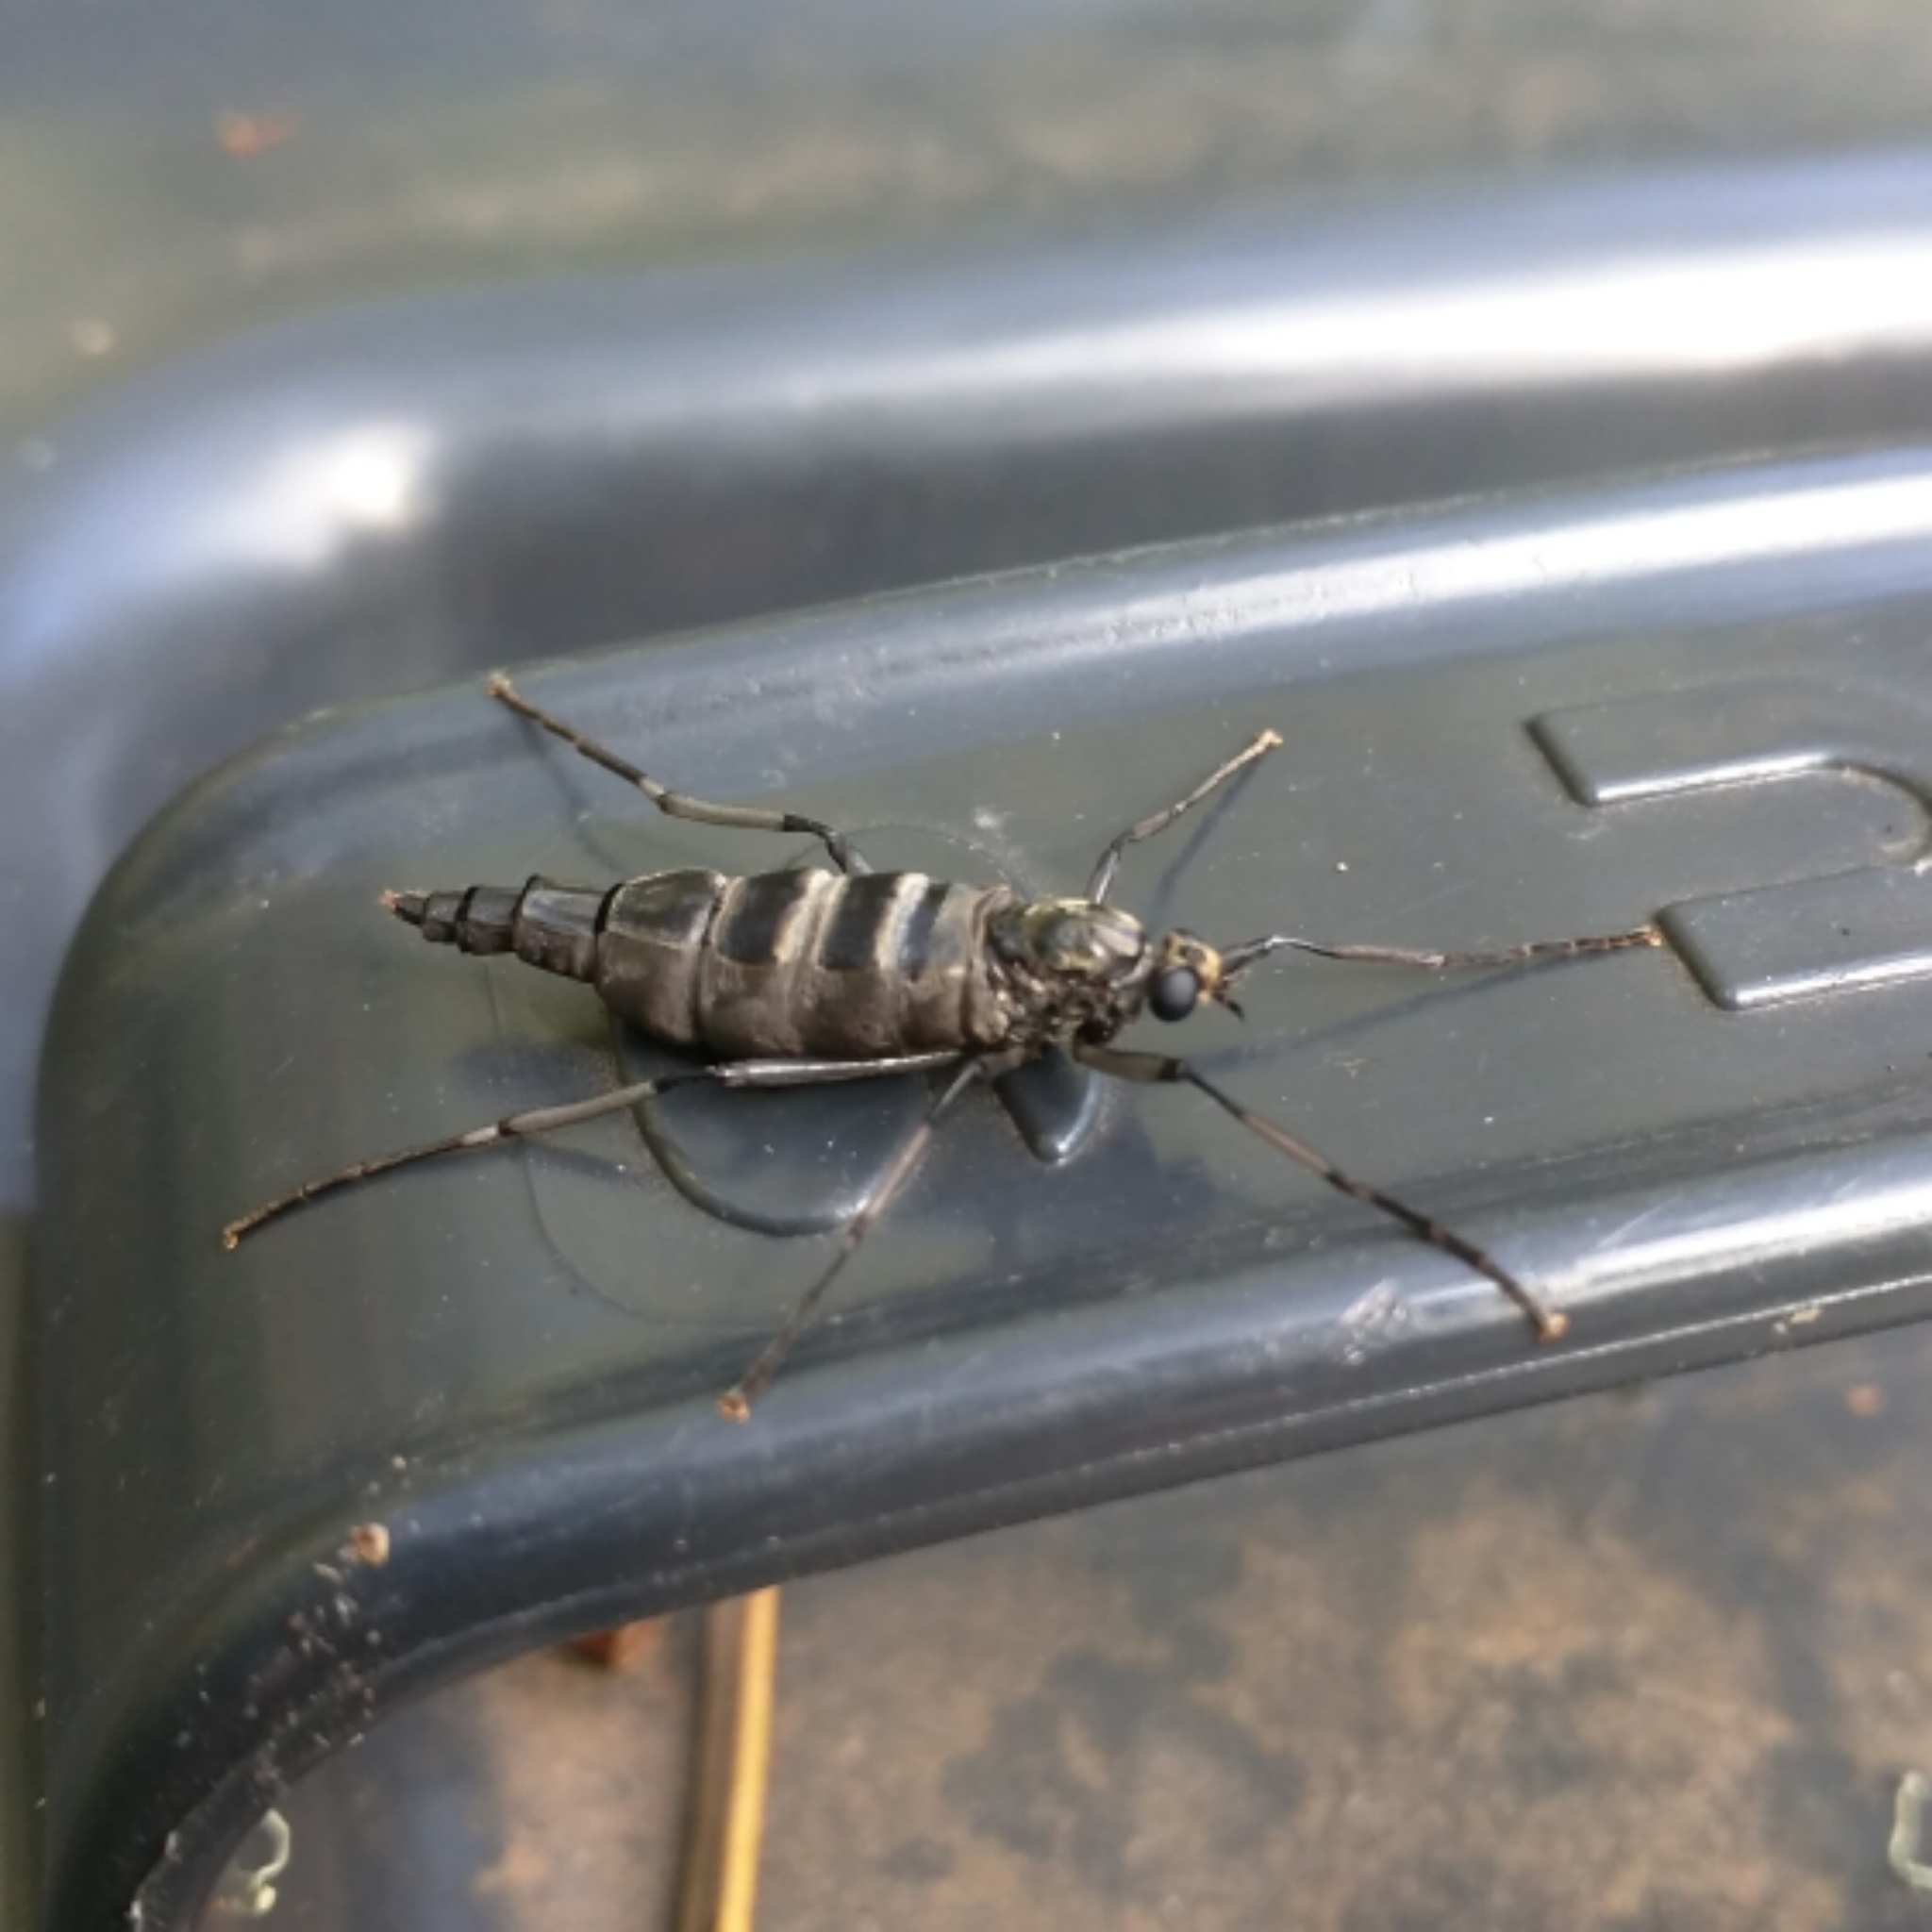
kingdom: Animalia
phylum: Arthropoda
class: Insecta
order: Diptera
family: Stratiomyidae
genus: Boreoides
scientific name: Boreoides subulatus
